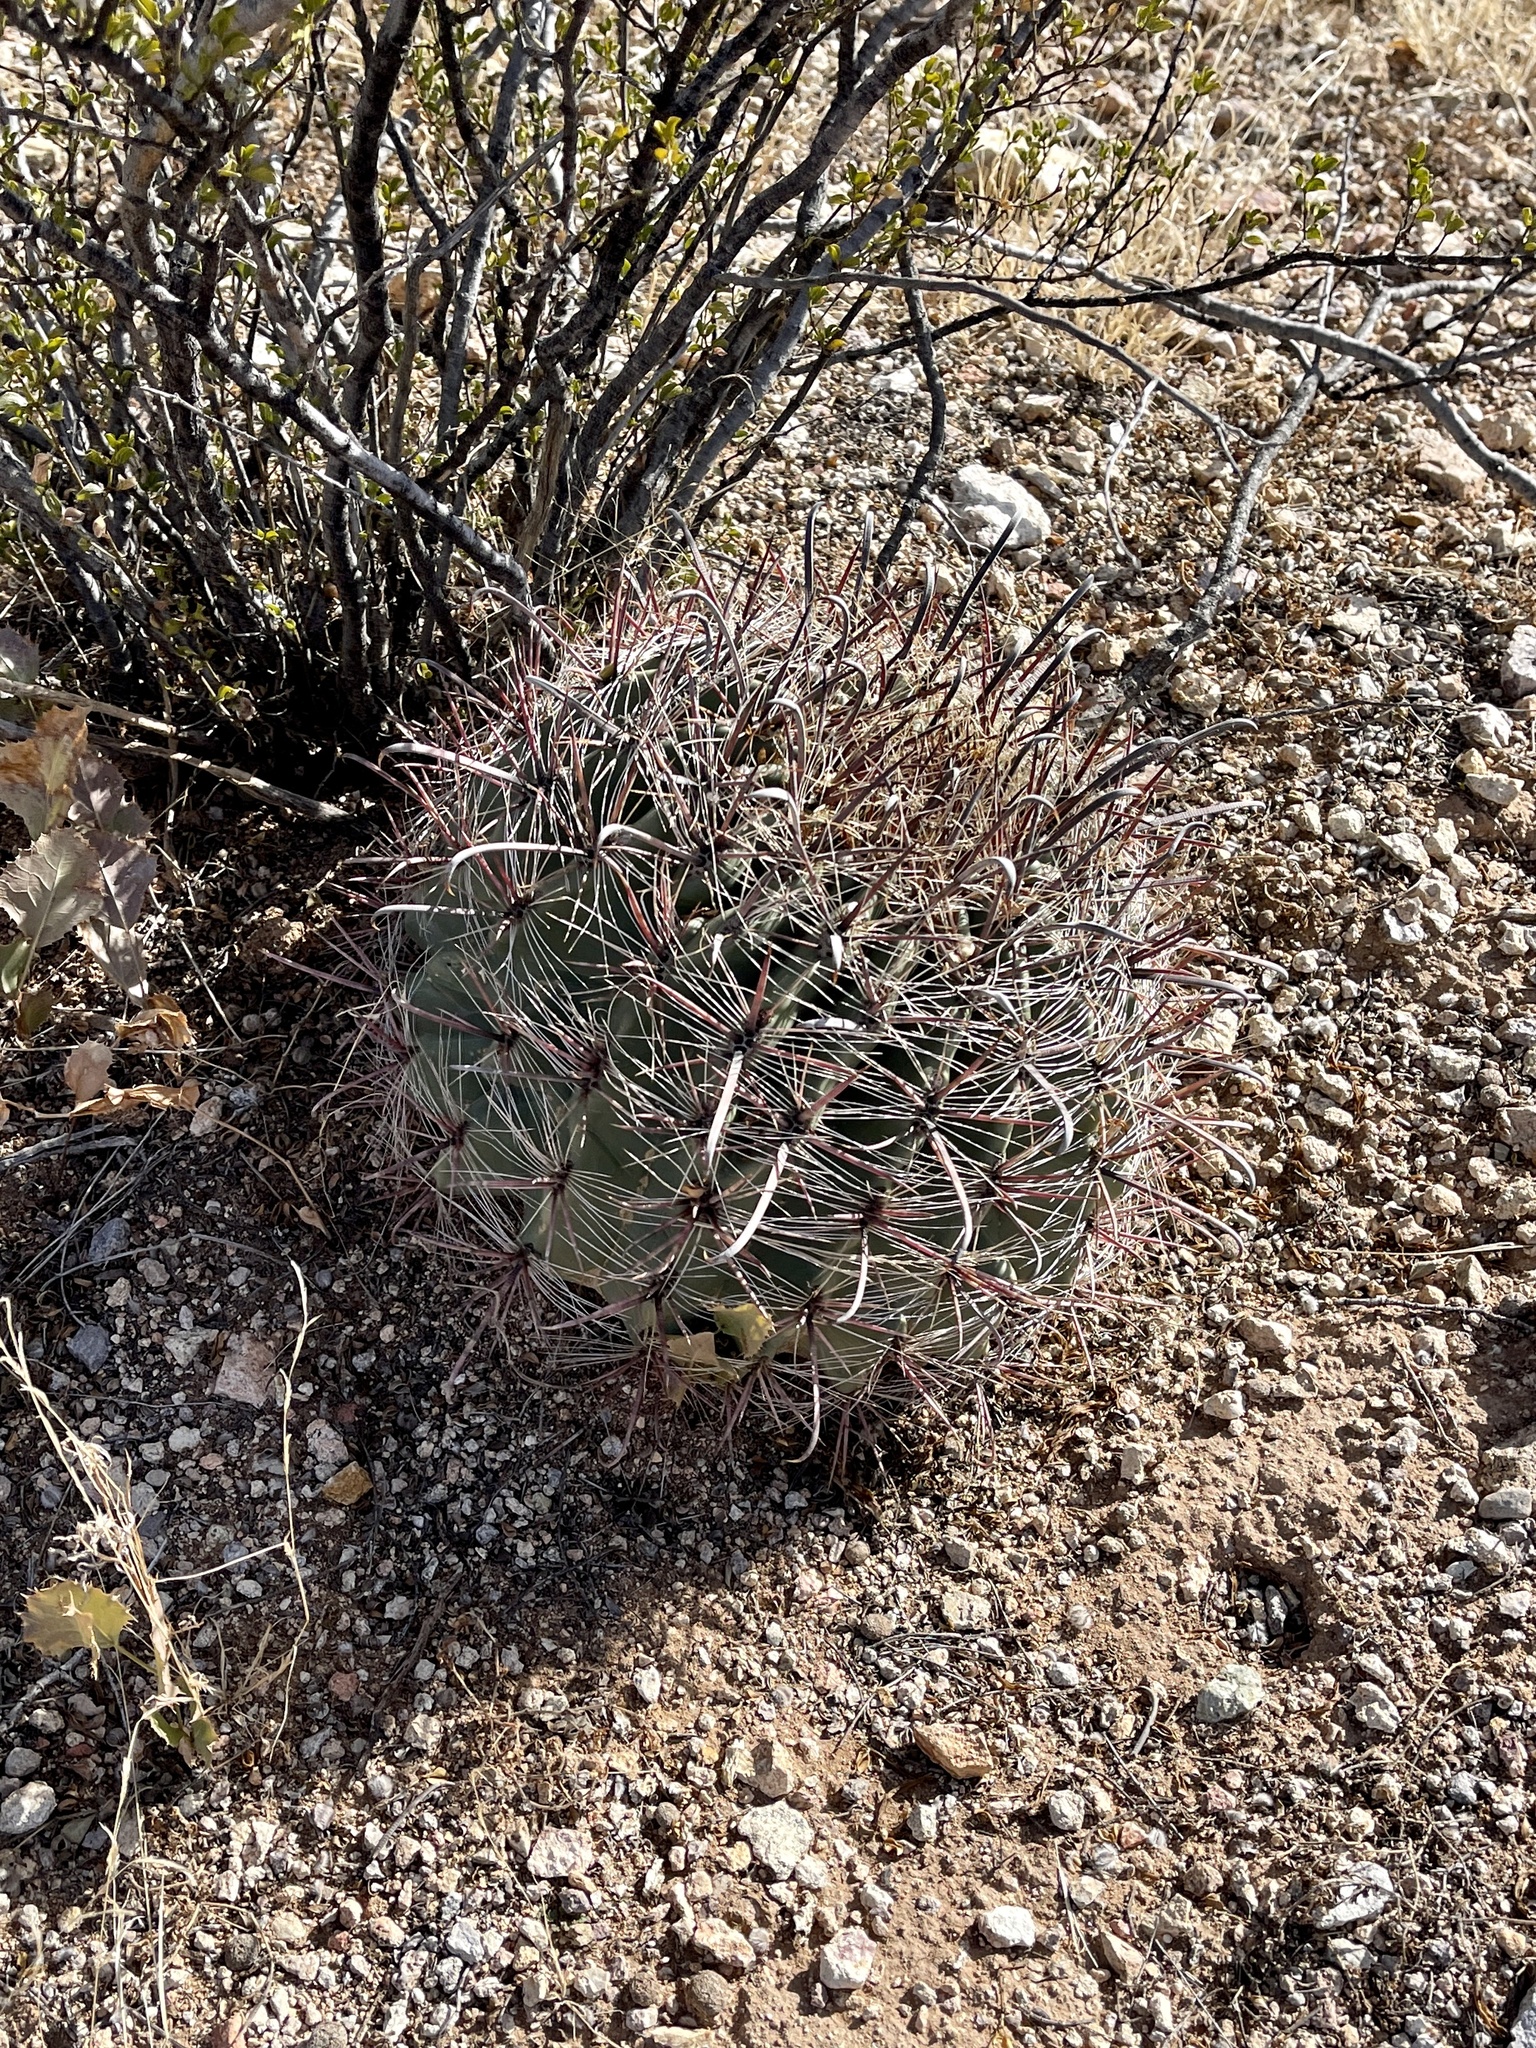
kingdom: Plantae
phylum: Tracheophyta
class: Magnoliopsida
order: Caryophyllales
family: Cactaceae
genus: Ferocactus
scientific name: Ferocactus wislizeni
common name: Candy barrel cactus
